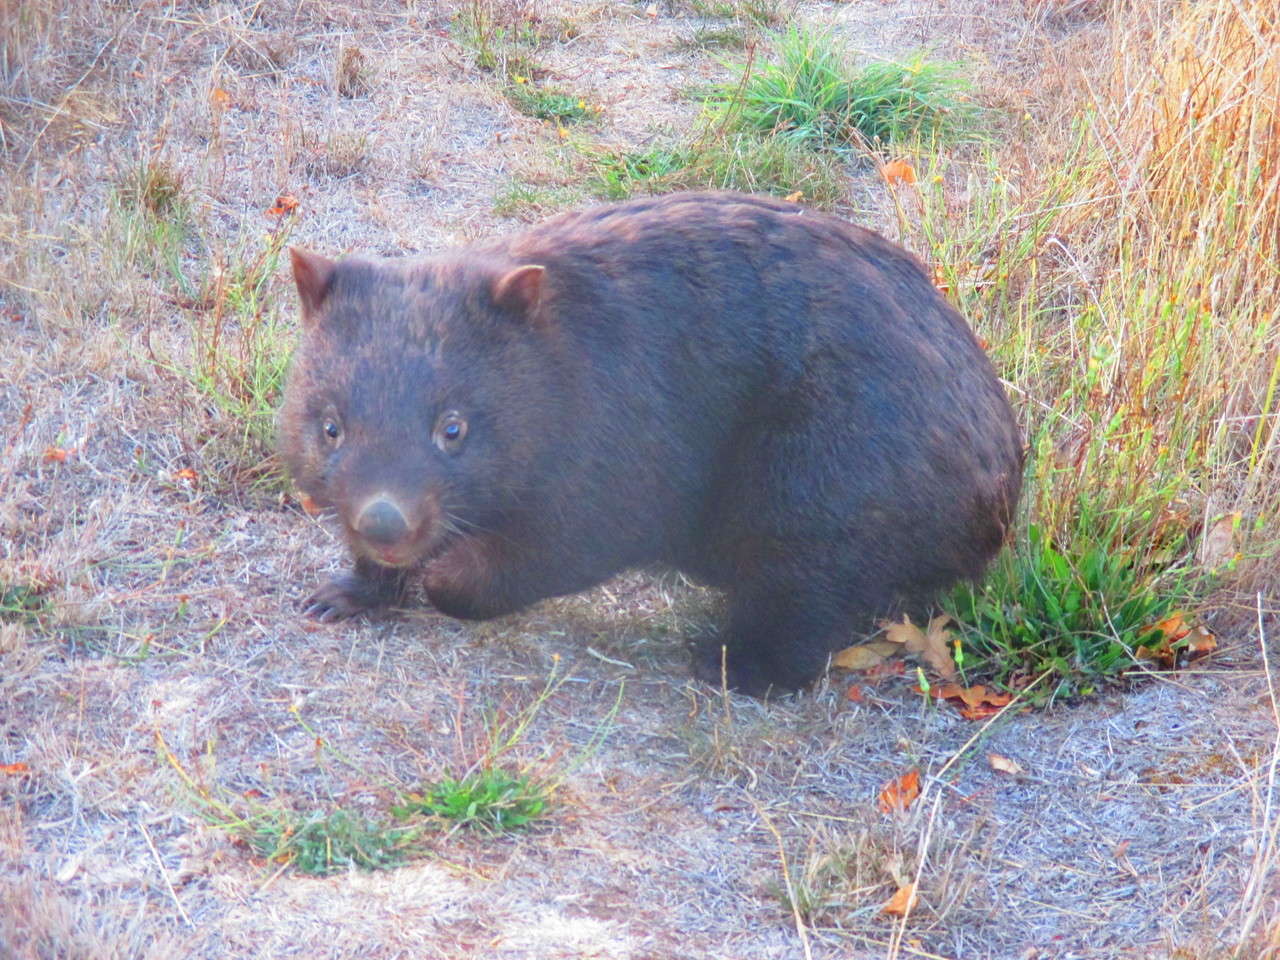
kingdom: Animalia
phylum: Chordata
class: Mammalia
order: Diprotodontia
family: Vombatidae
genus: Vombatus
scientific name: Vombatus ursinus
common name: Common wombat
